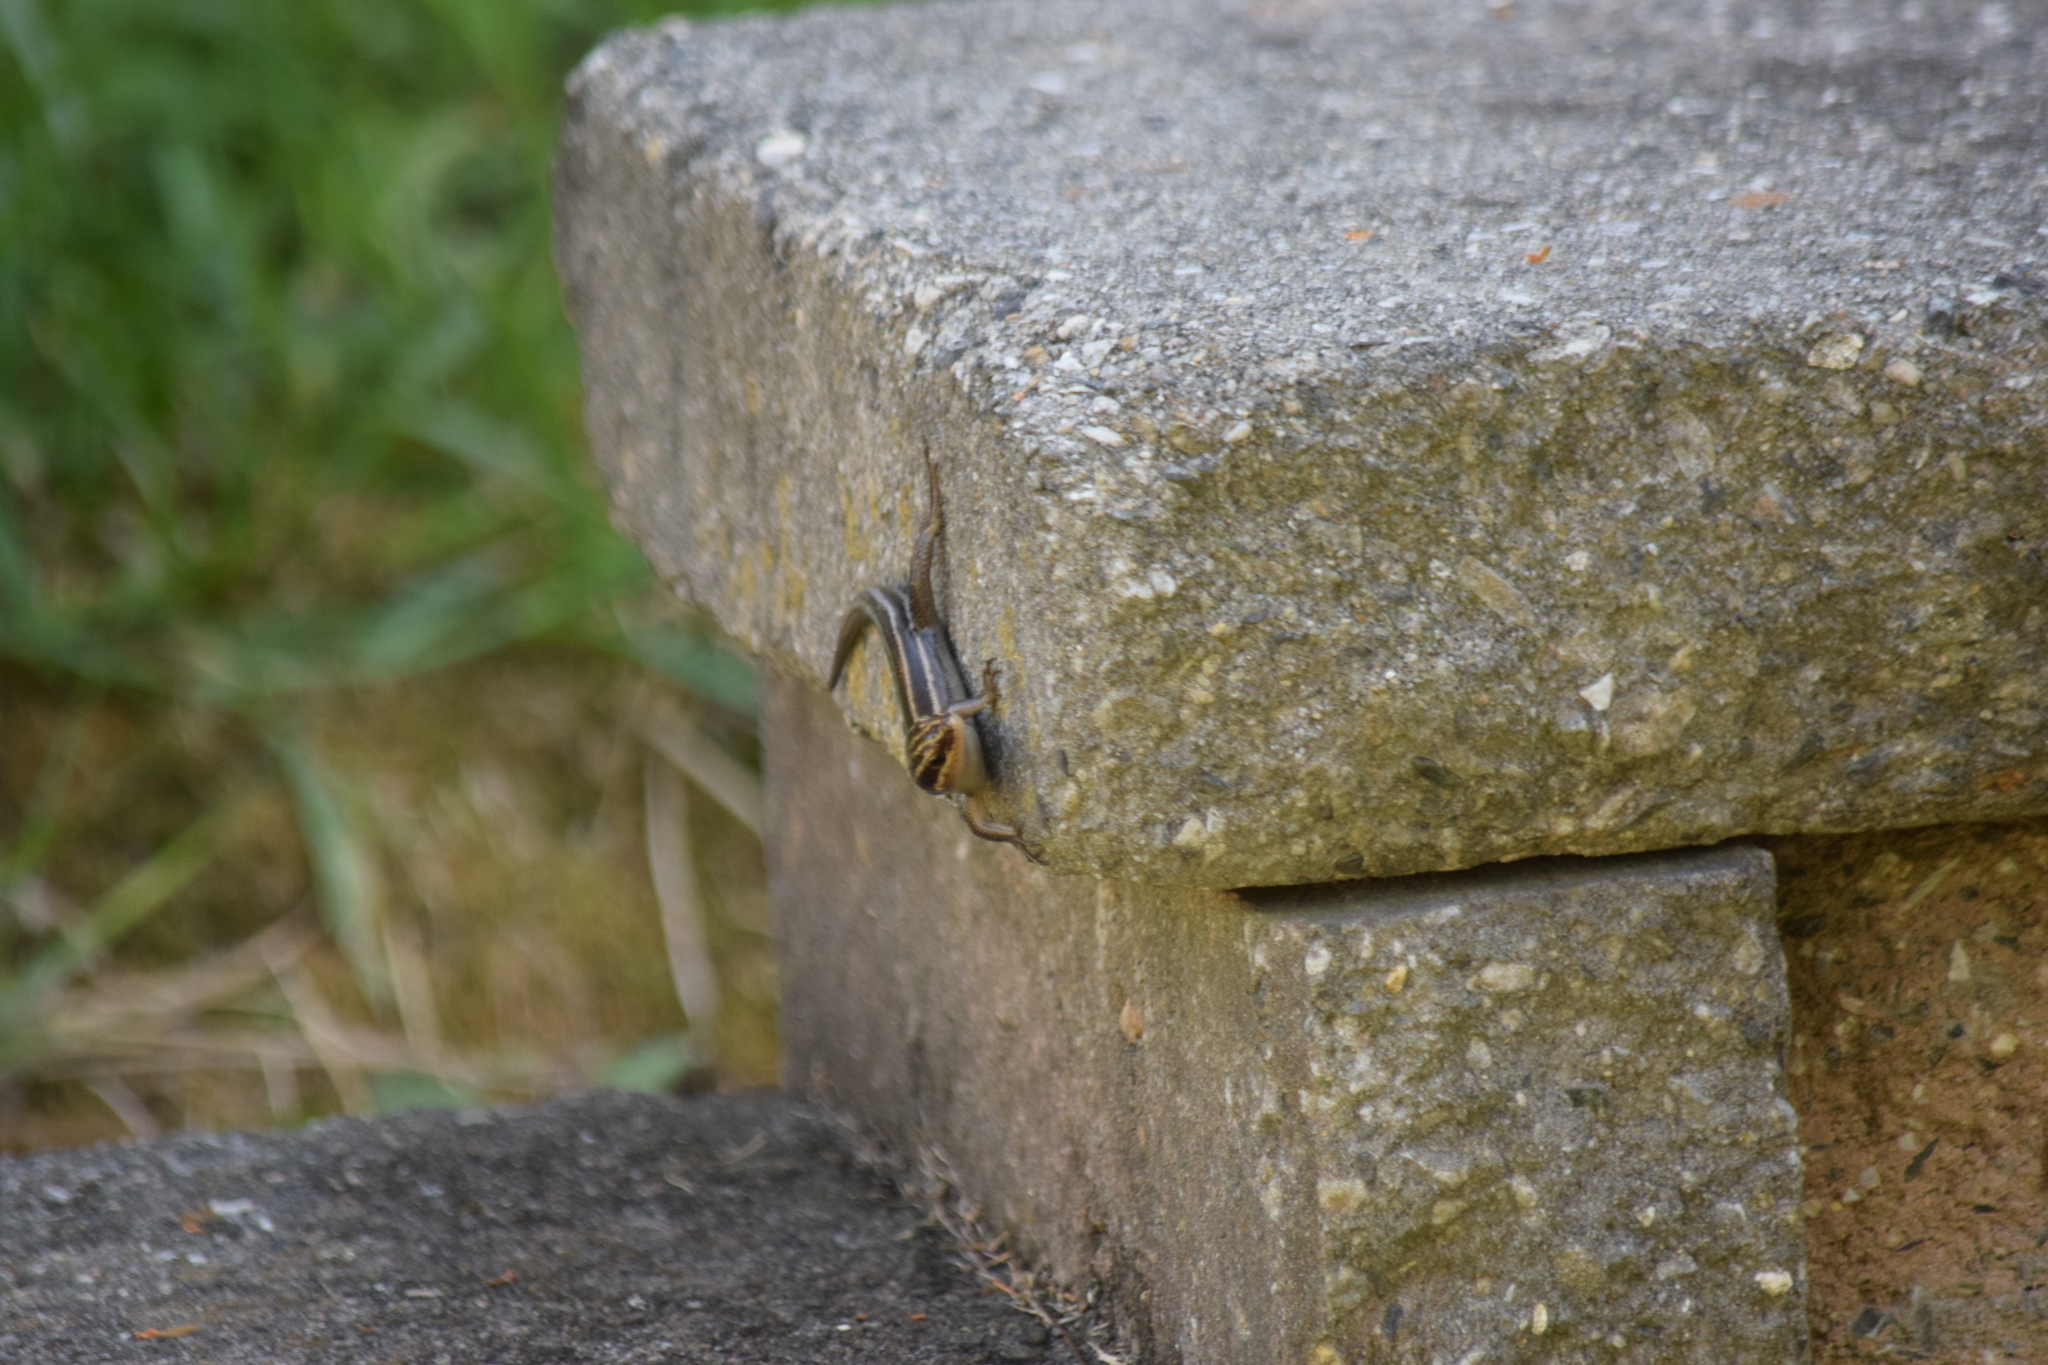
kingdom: Animalia
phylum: Chordata
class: Squamata
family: Scincidae
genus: Plestiodon
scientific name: Plestiodon fasciatus
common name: Five-lined skink
